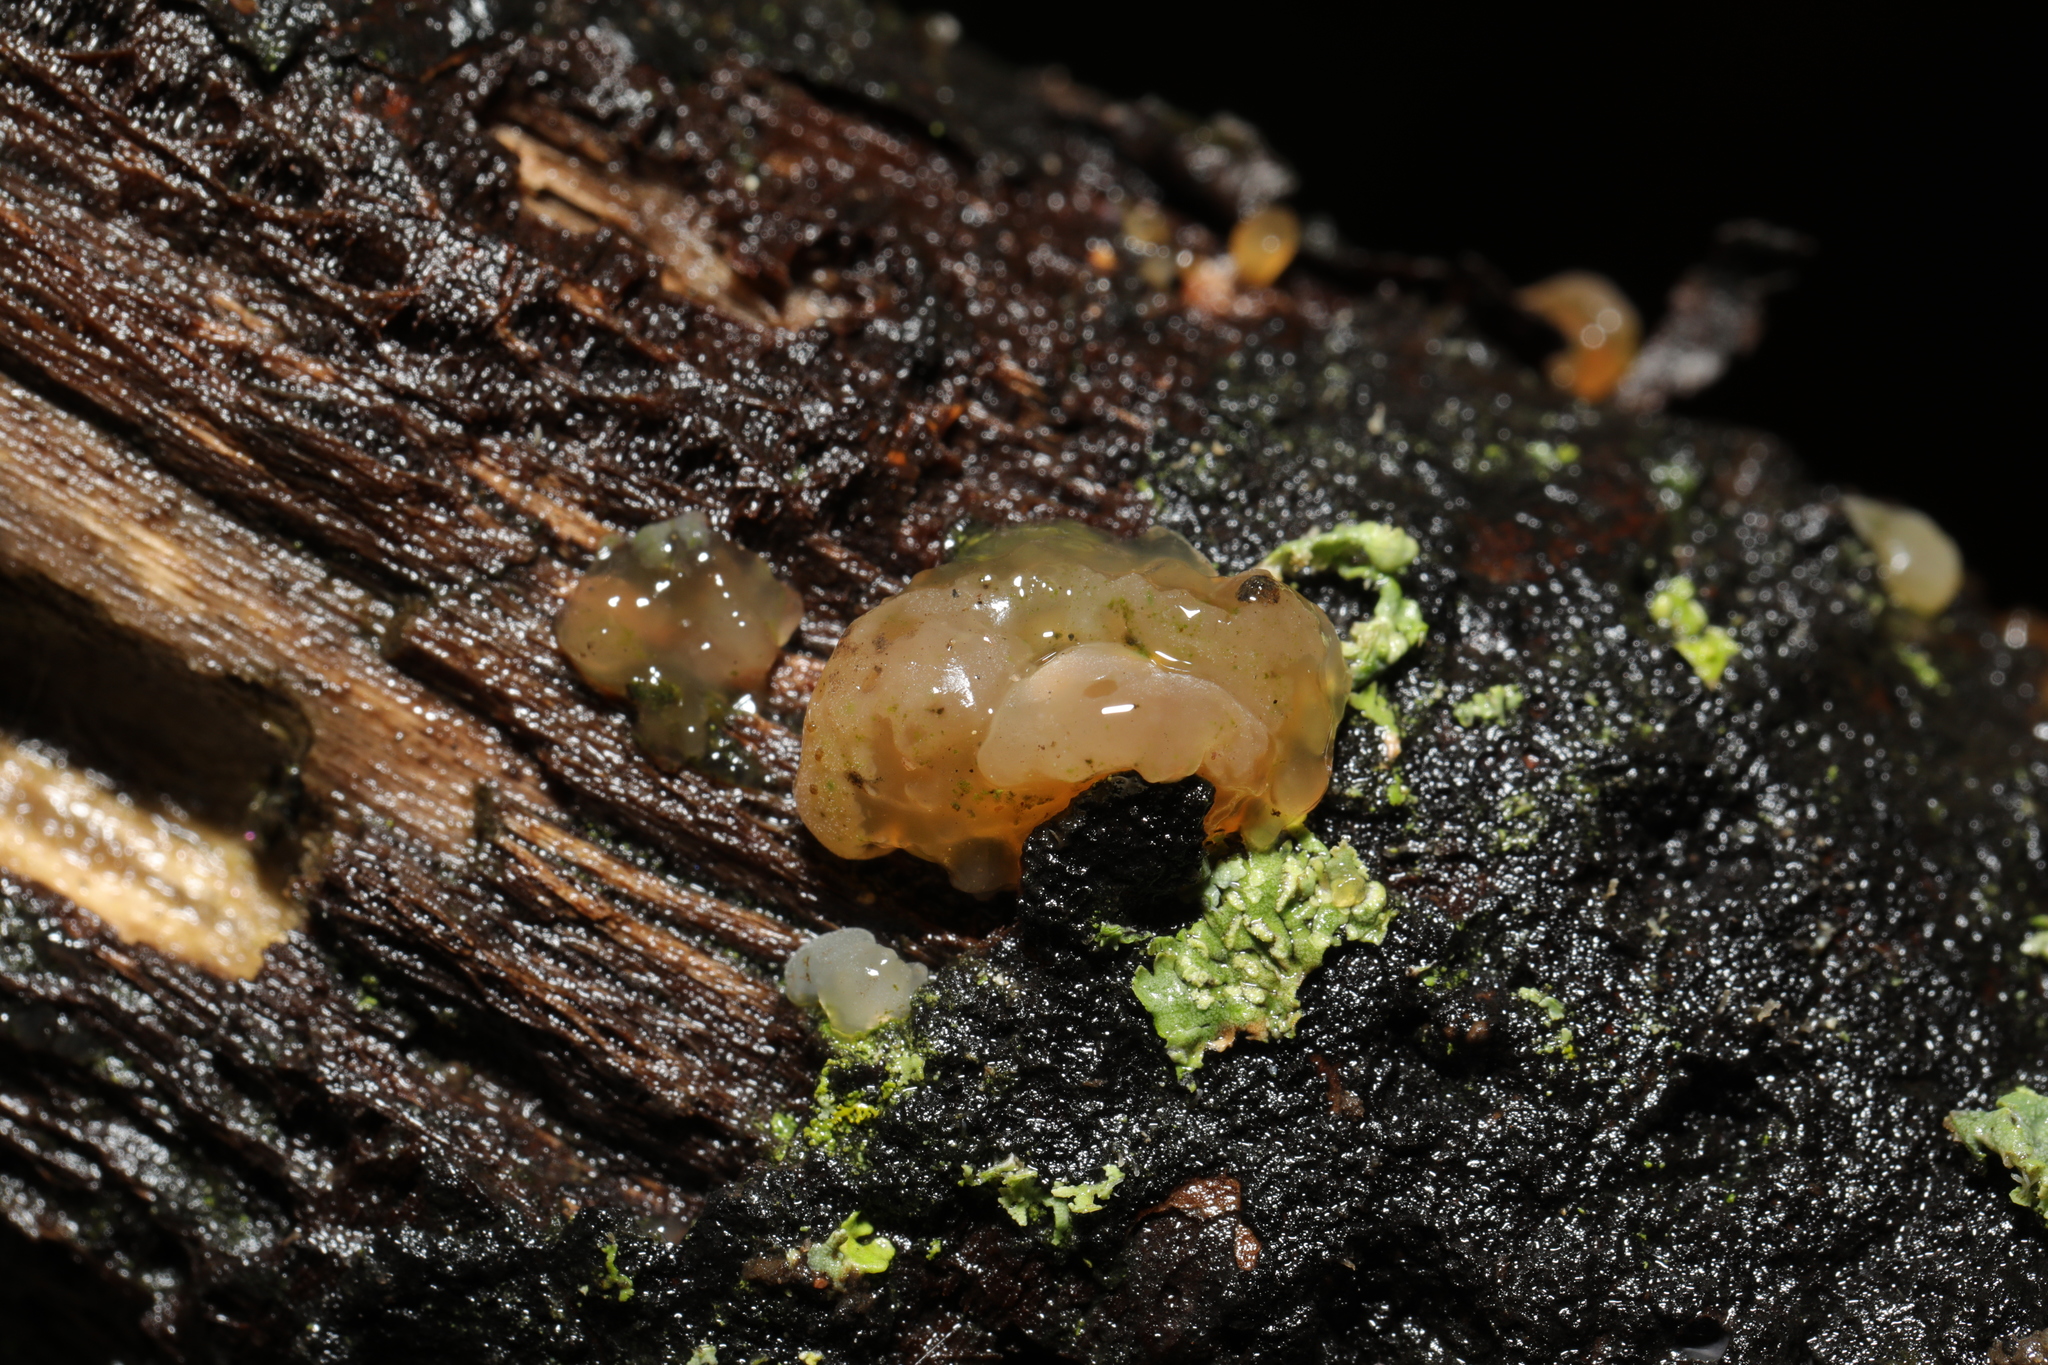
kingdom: Fungi
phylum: Basidiomycota
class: Agaricomycetes
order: Auriculariales
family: Hyaloriaceae
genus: Myxarium
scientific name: Myxarium nucleatum
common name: Crystal brain fungus
